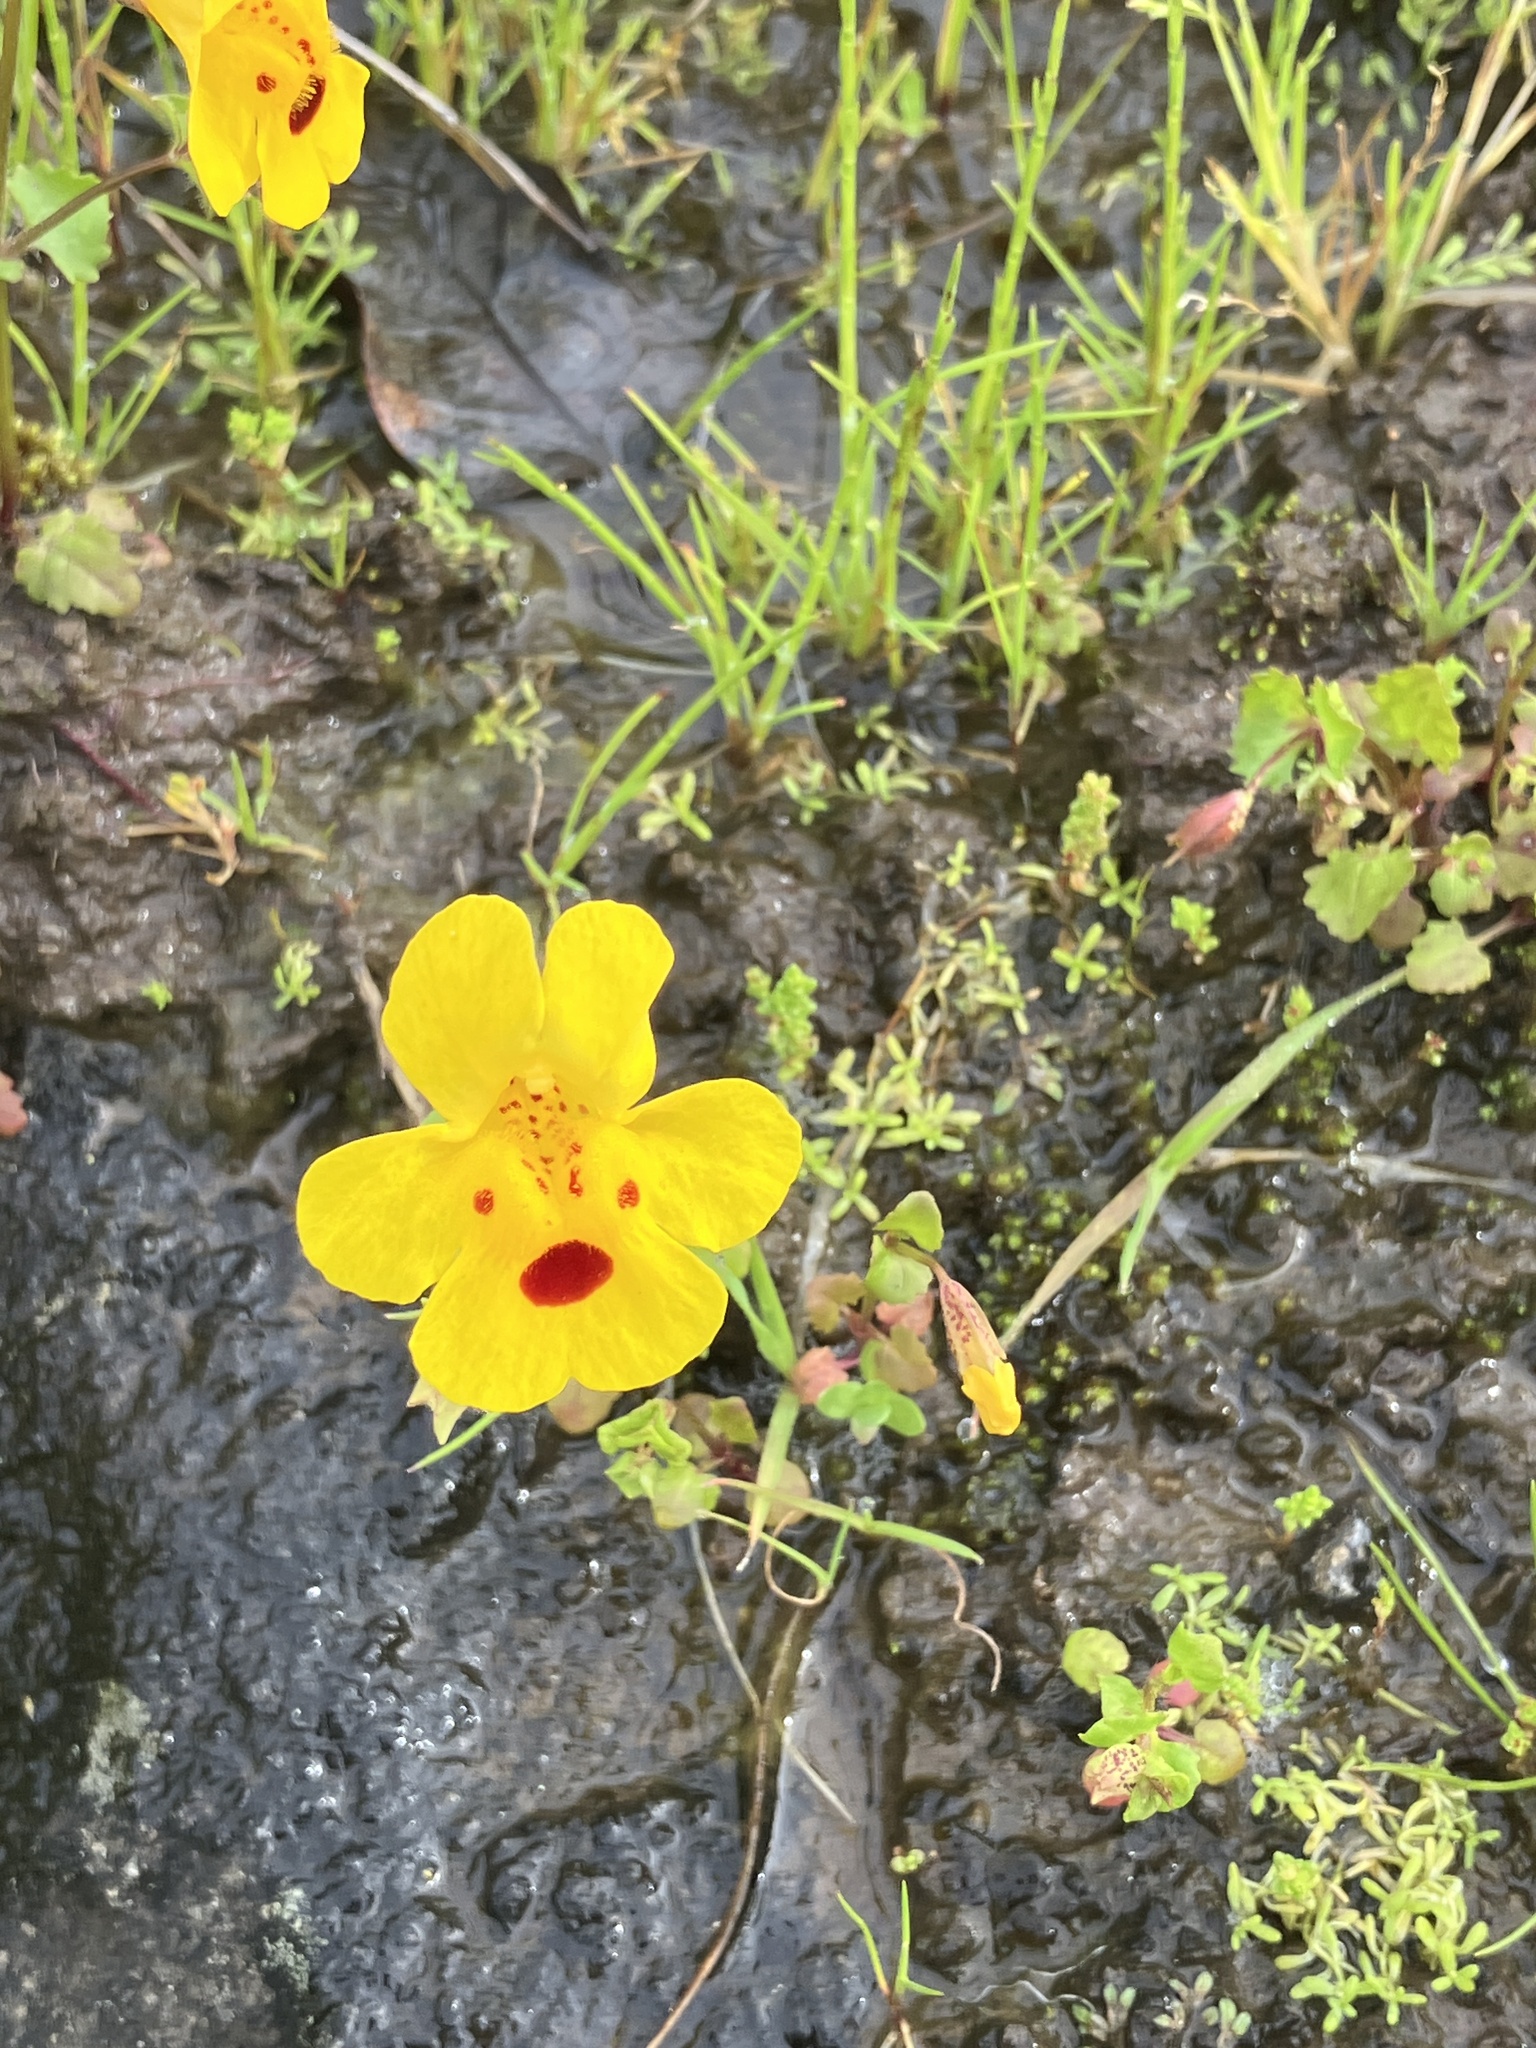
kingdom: Plantae
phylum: Tracheophyta
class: Magnoliopsida
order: Lamiales
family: Phrymaceae
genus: Erythranthe
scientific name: Erythranthe microphylla
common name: Bentham's monkeyflower
